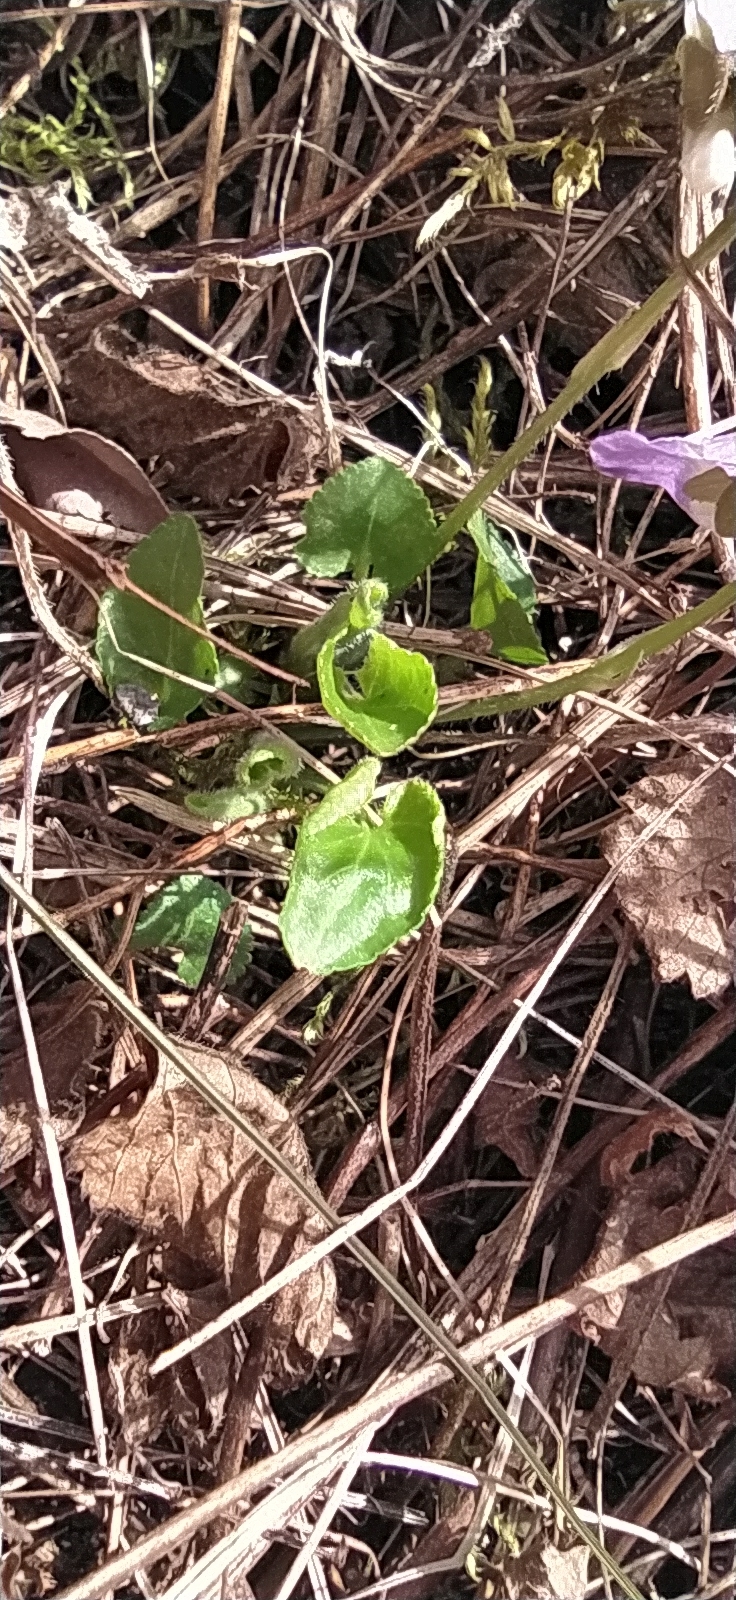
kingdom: Plantae
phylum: Tracheophyta
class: Magnoliopsida
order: Malpighiales
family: Violaceae
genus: Viola
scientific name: Viola collina
